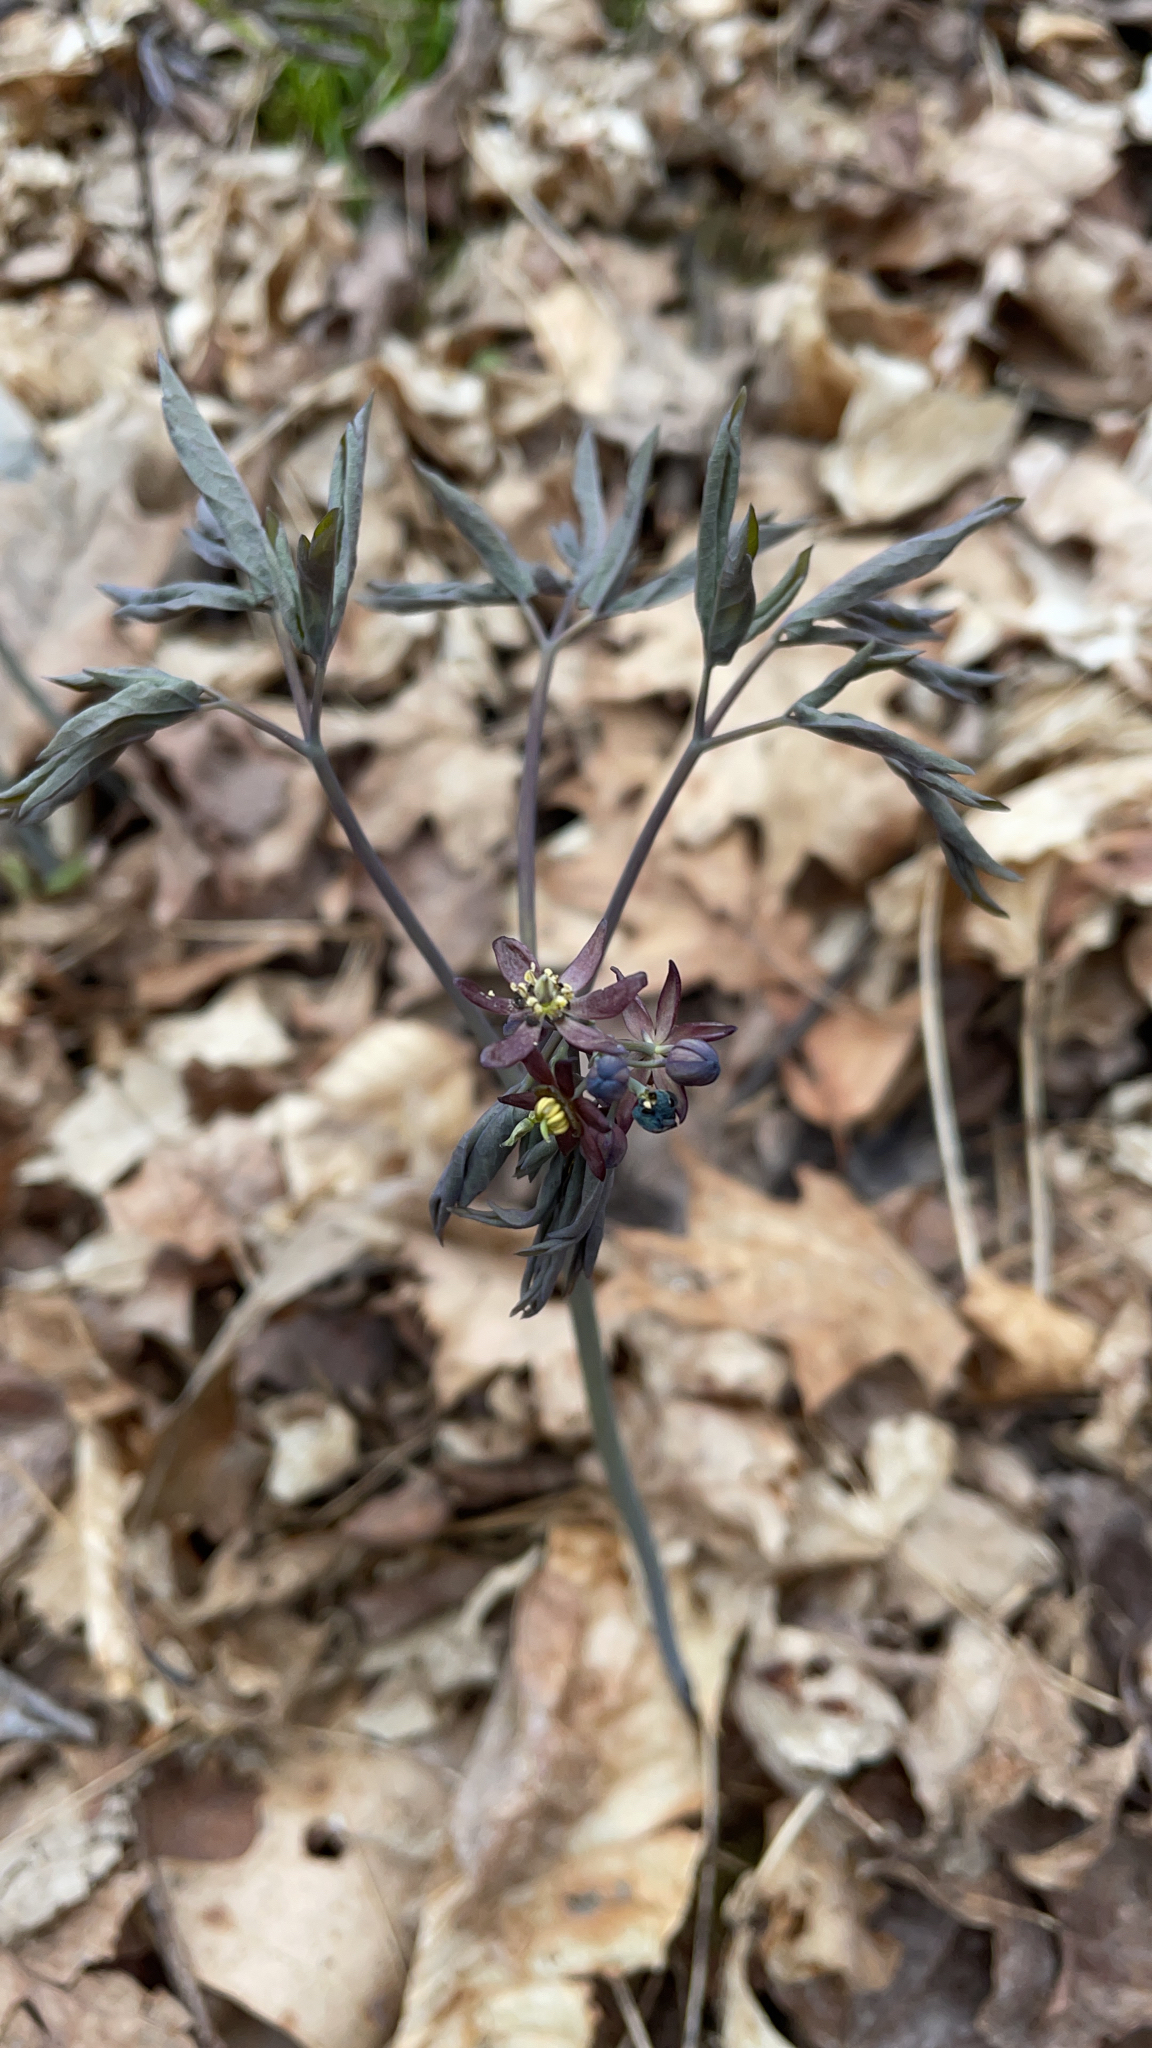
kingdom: Plantae
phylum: Tracheophyta
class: Magnoliopsida
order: Ranunculales
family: Berberidaceae
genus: Caulophyllum
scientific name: Caulophyllum giganteum
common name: Blue cohosh
